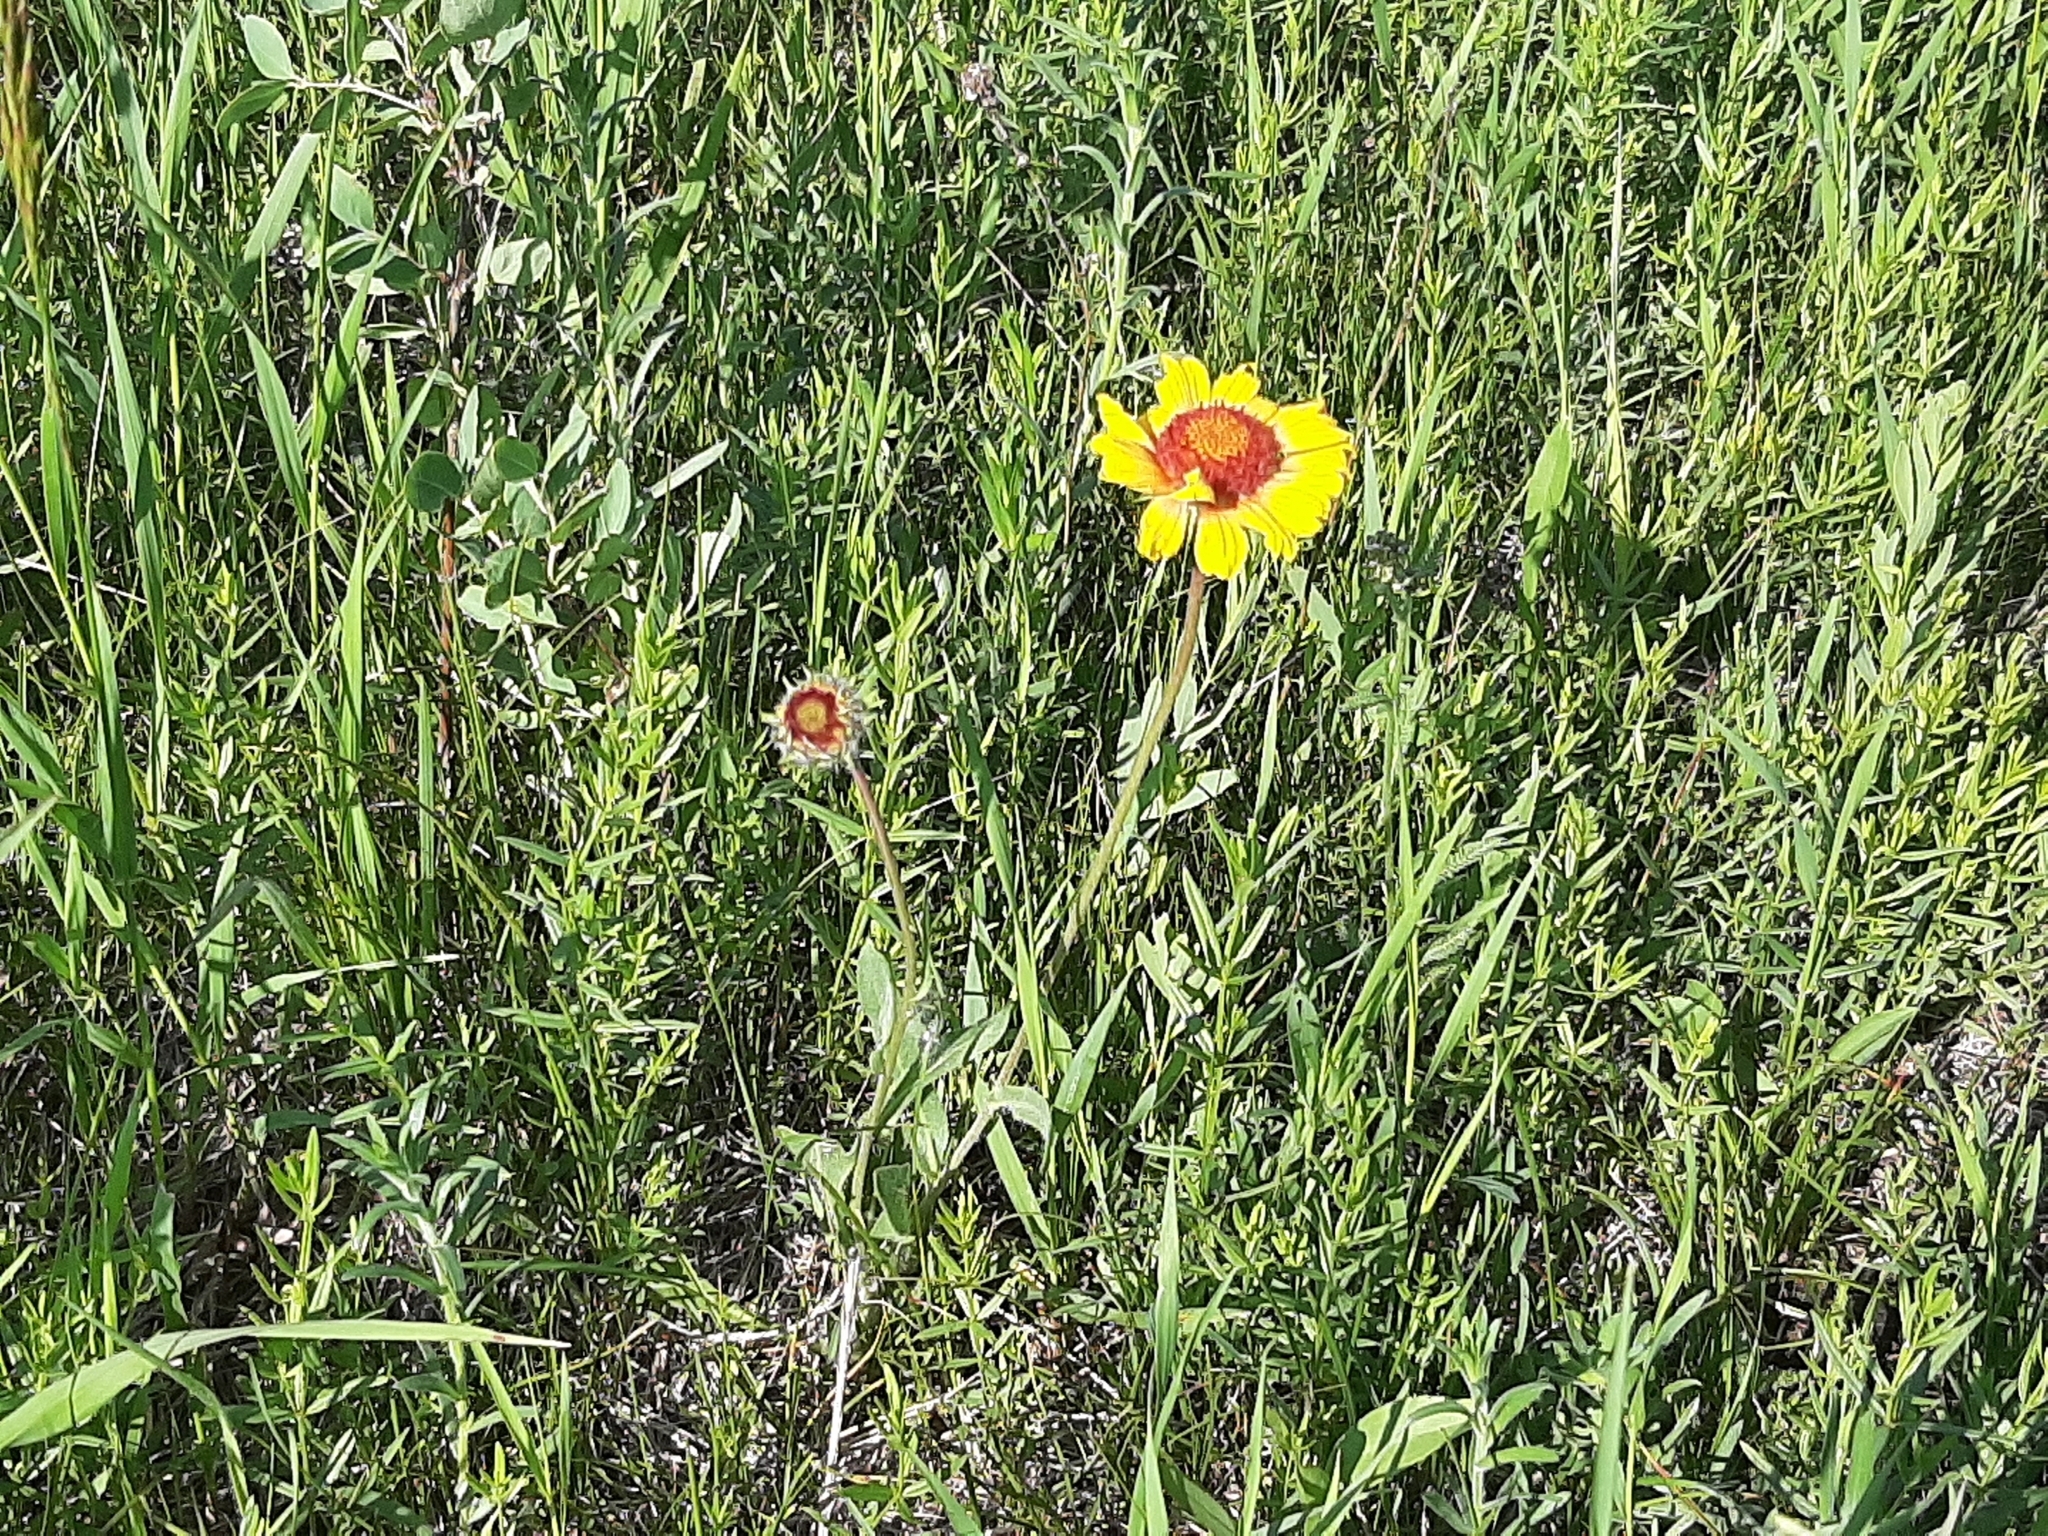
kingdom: Plantae
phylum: Tracheophyta
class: Magnoliopsida
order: Asterales
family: Asteraceae
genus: Gaillardia
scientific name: Gaillardia aristata
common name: Blanket-flower
